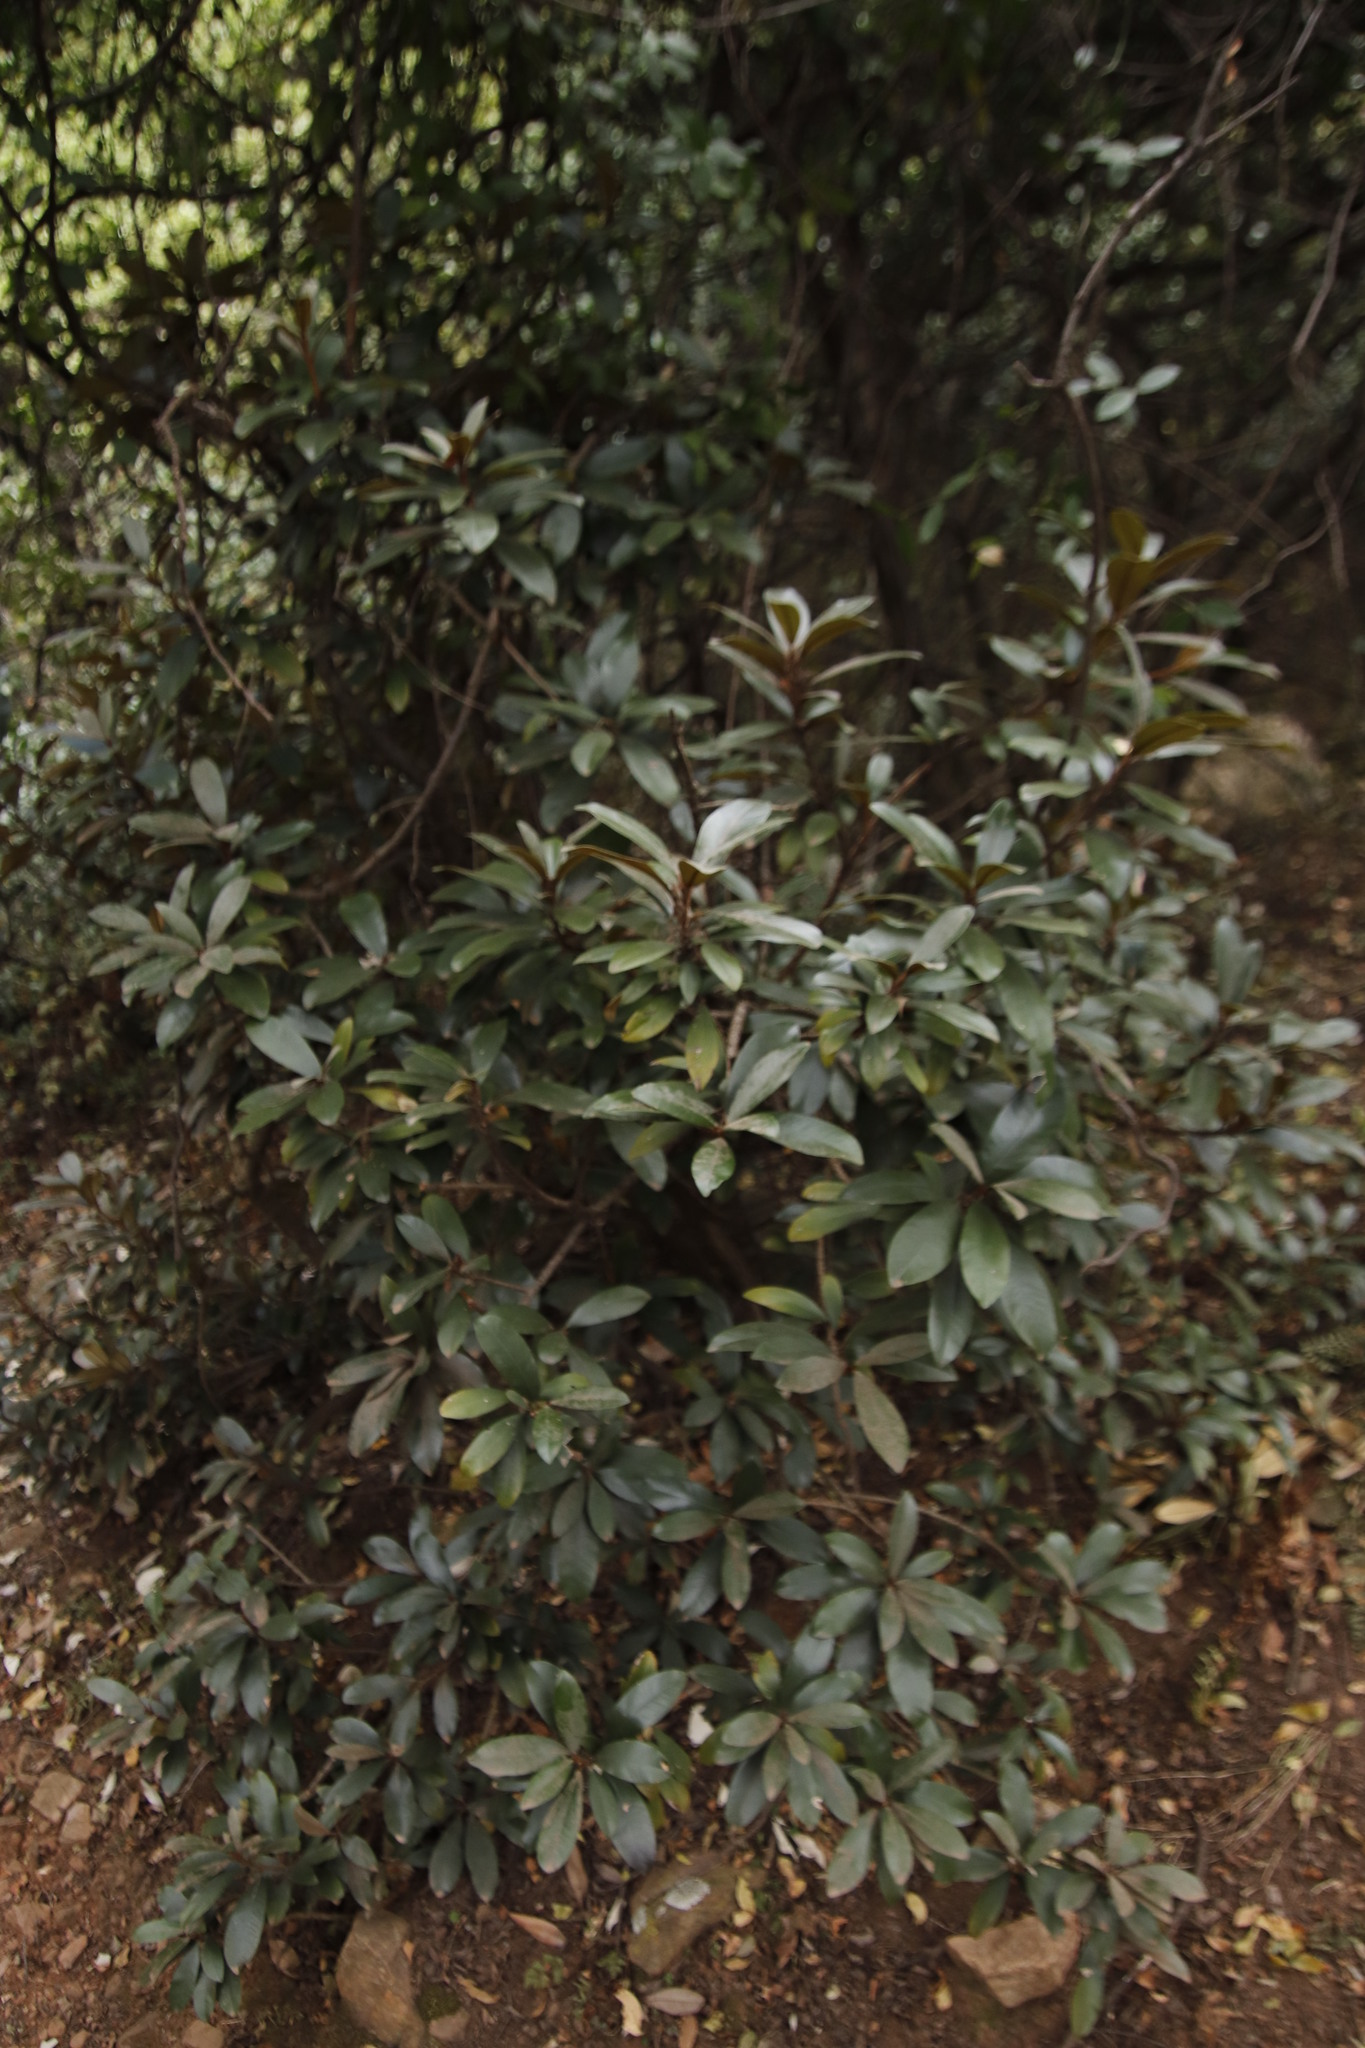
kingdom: Plantae
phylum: Tracheophyta
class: Magnoliopsida
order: Ericales
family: Sapotaceae
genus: Englerophytum
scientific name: Englerophytum magalismontanum
